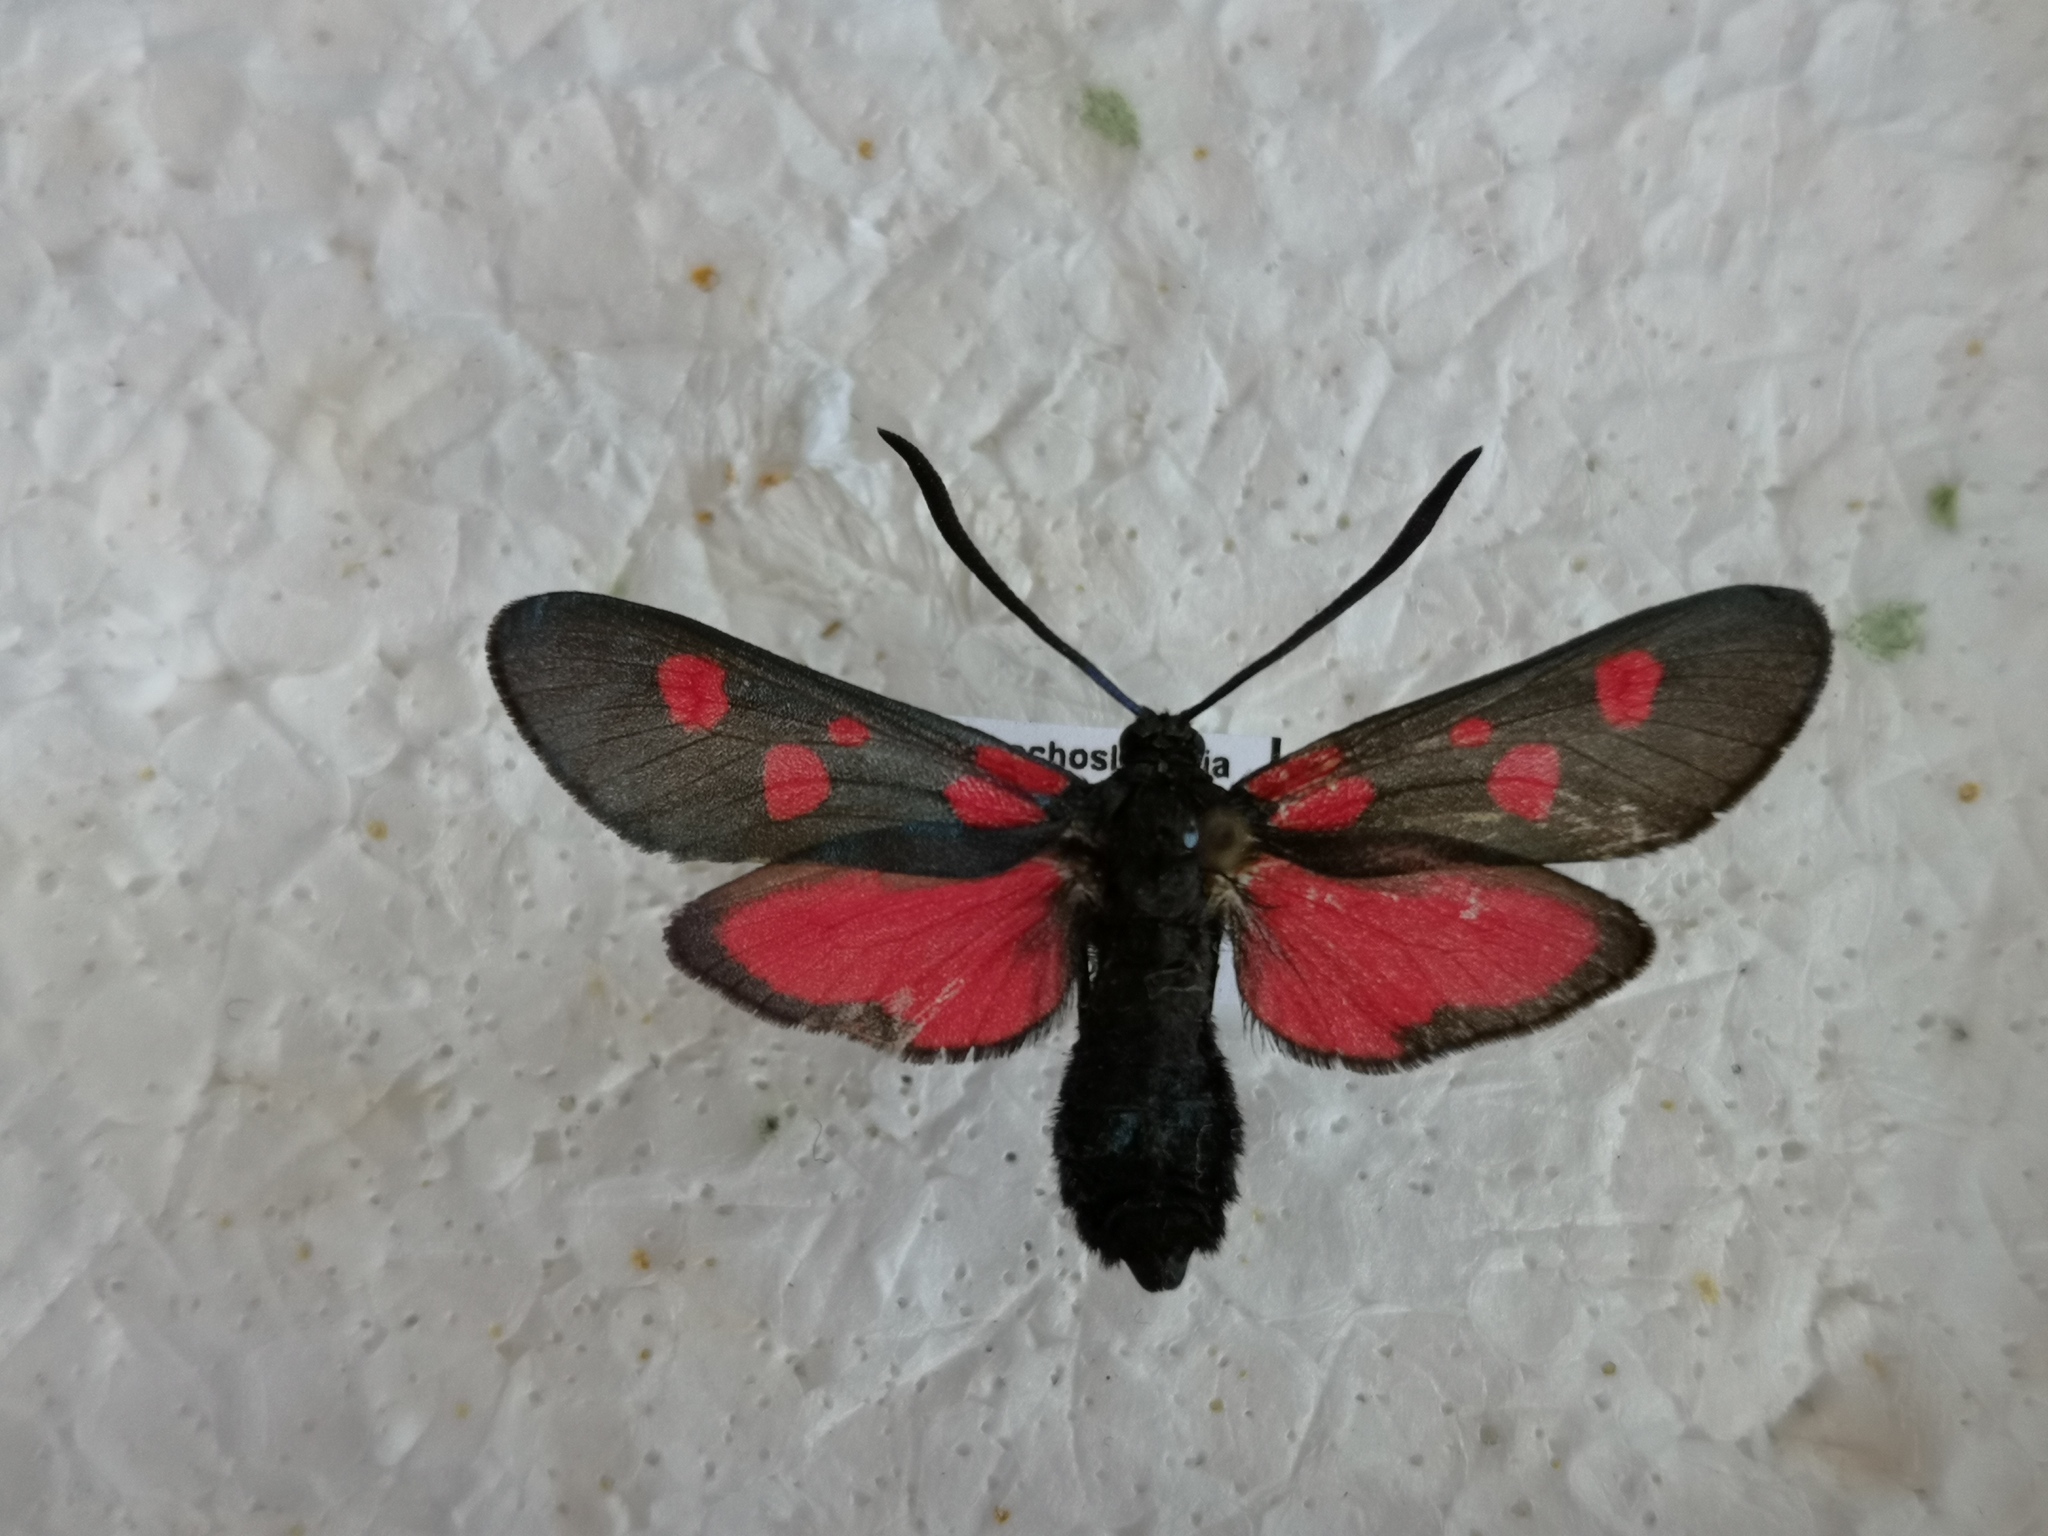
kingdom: Animalia
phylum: Arthropoda
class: Insecta
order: Lepidoptera
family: Zygaenidae
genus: Zygaena
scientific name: Zygaena lonicerae
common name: Narrow-bordered five-spot burnet
